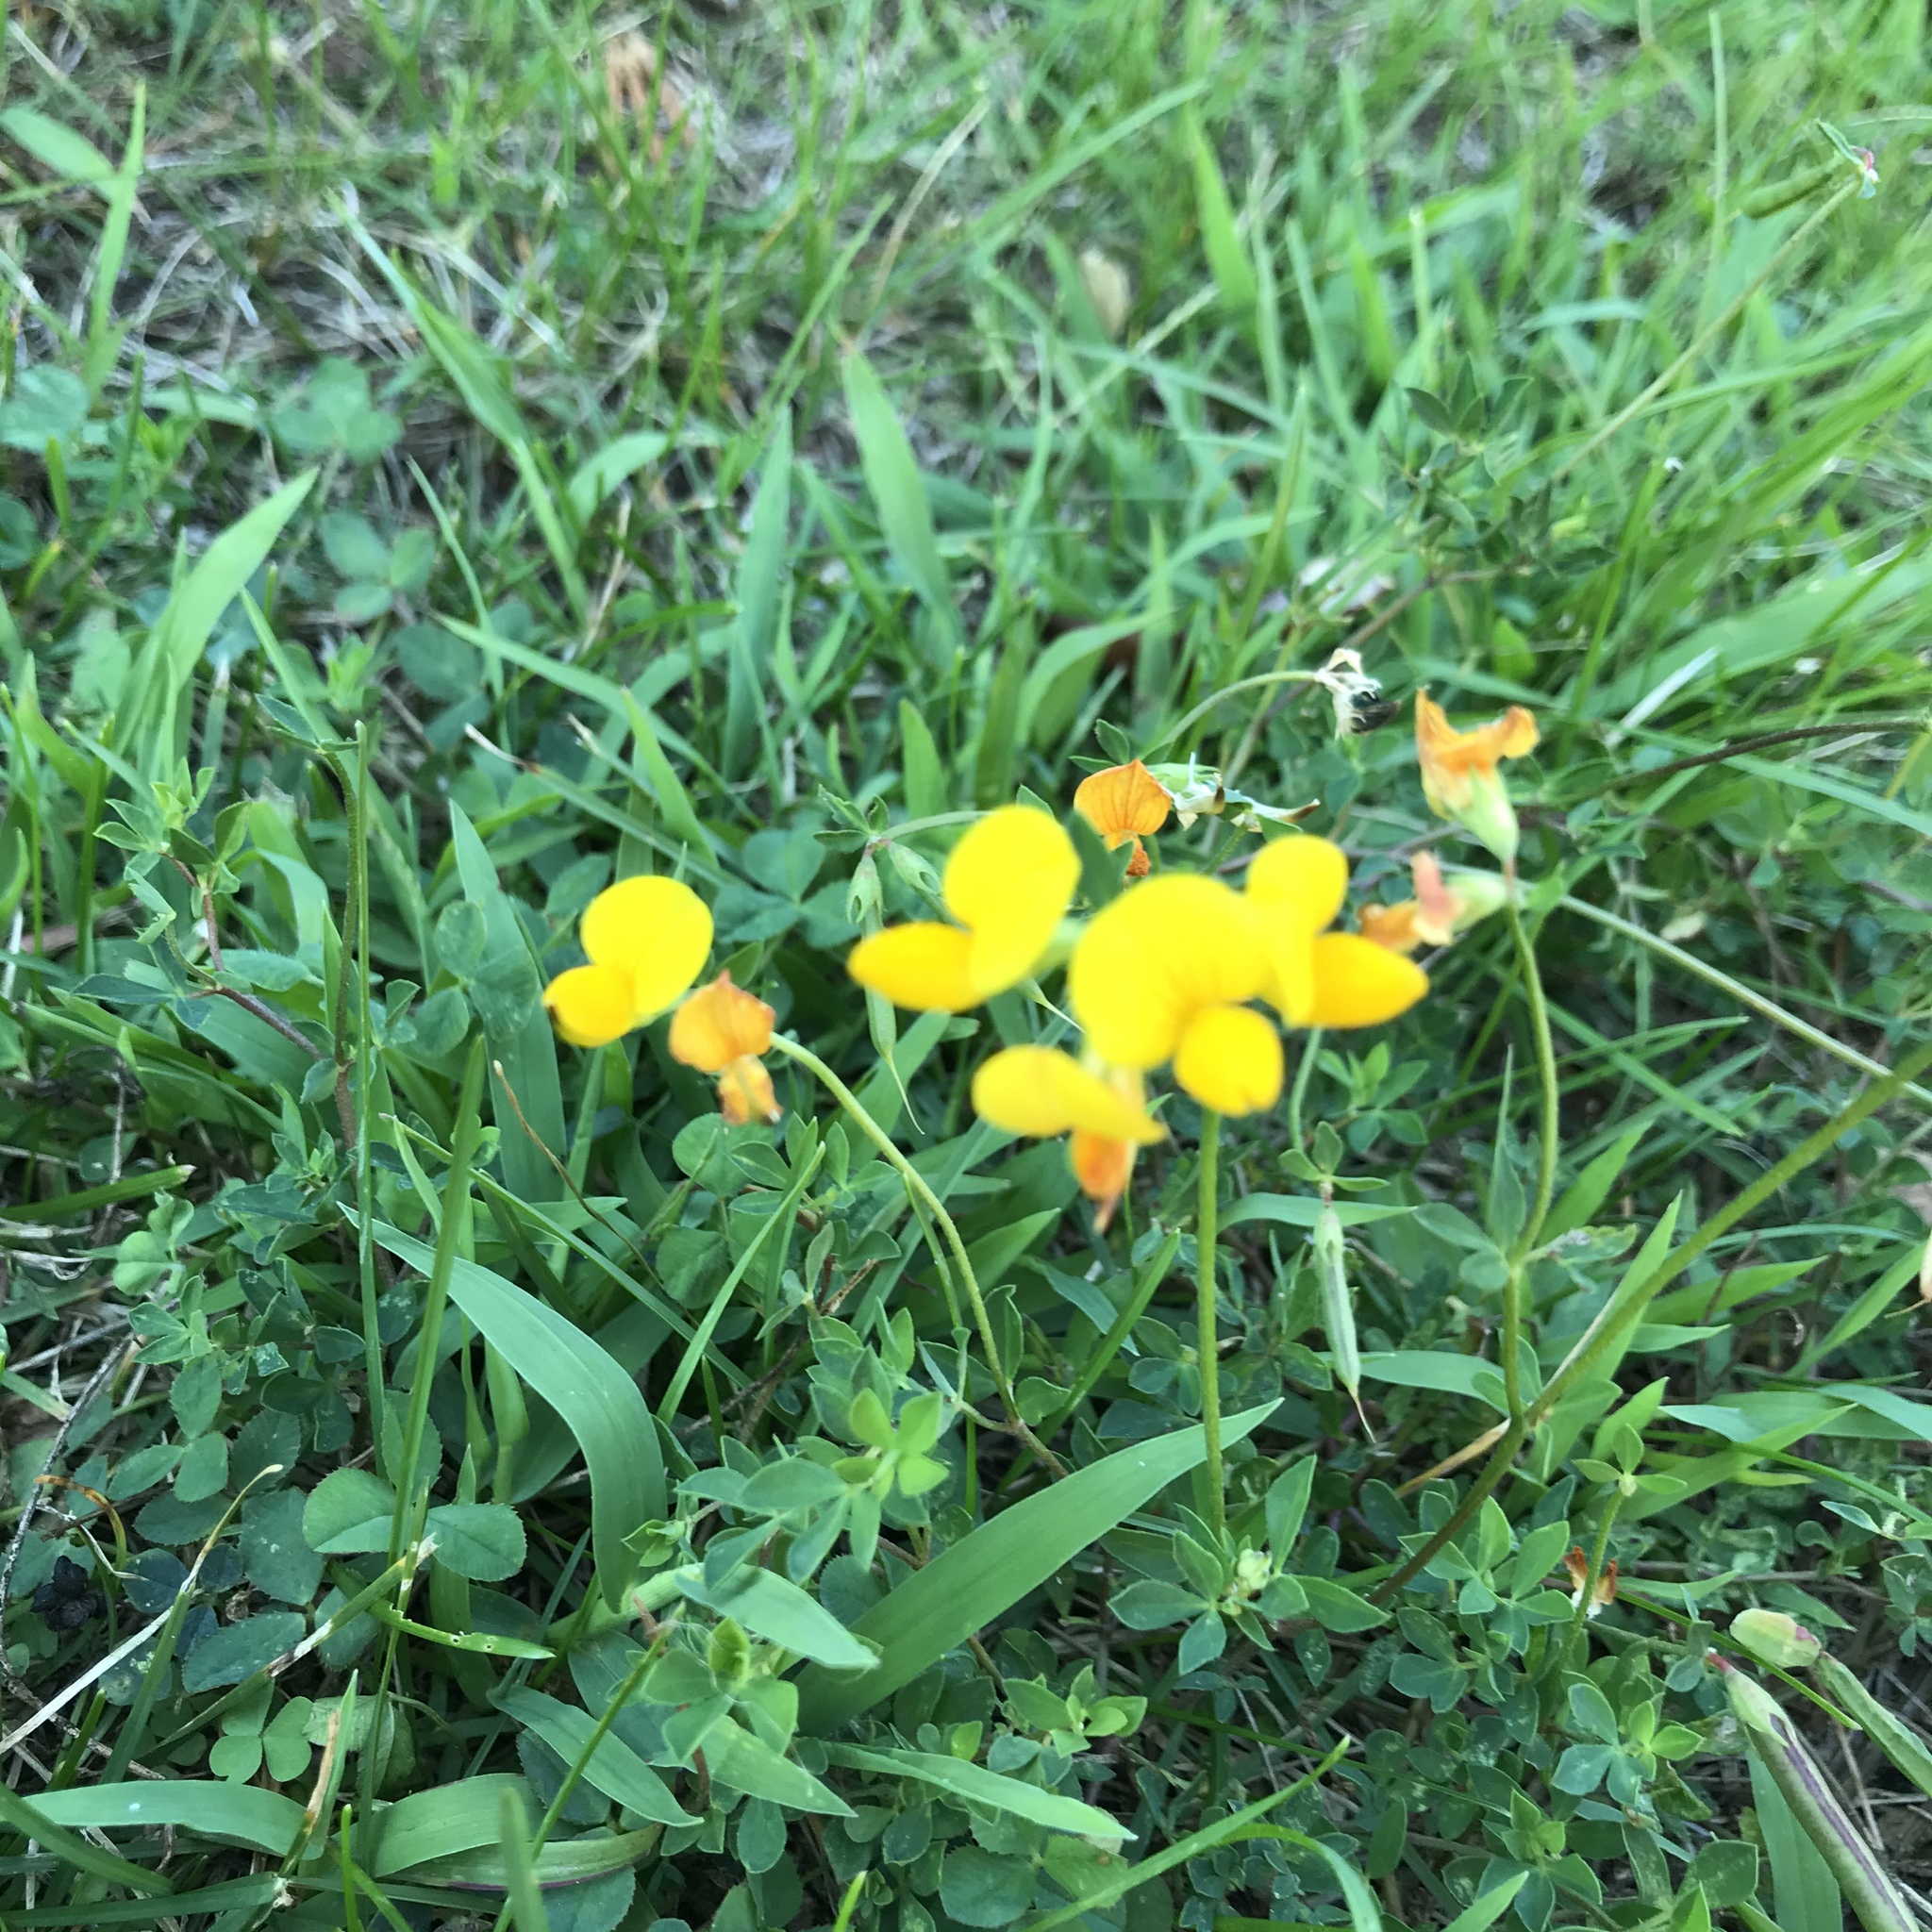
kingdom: Plantae
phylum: Tracheophyta
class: Magnoliopsida
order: Fabales
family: Fabaceae
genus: Lotus
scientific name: Lotus corniculatus
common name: Common bird's-foot-trefoil
